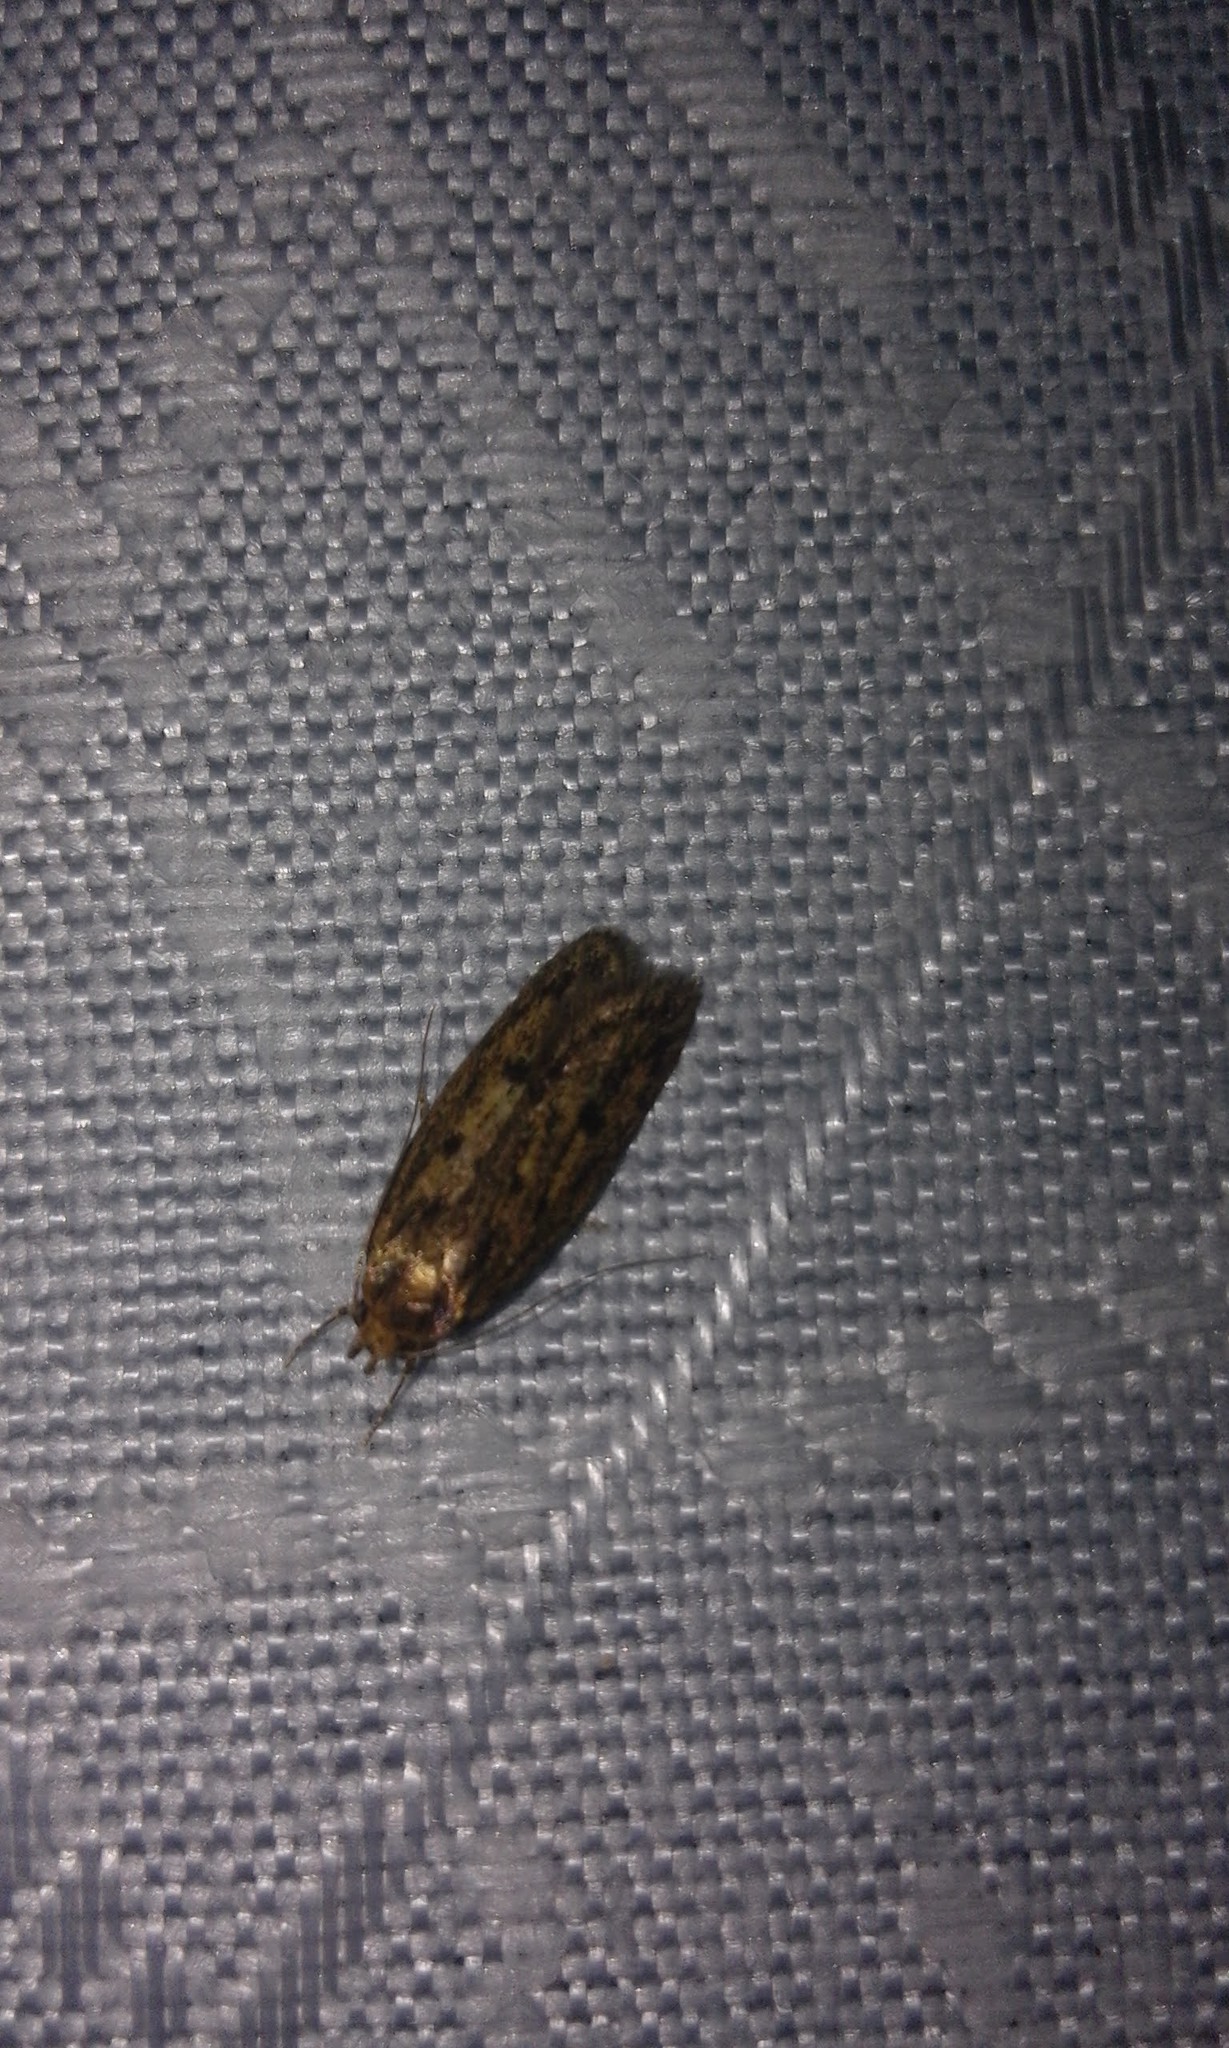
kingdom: Animalia
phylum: Arthropoda
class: Insecta
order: Lepidoptera
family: Oecophoridae
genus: Hofmannophila
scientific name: Hofmannophila pseudospretella
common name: Brown house moth
